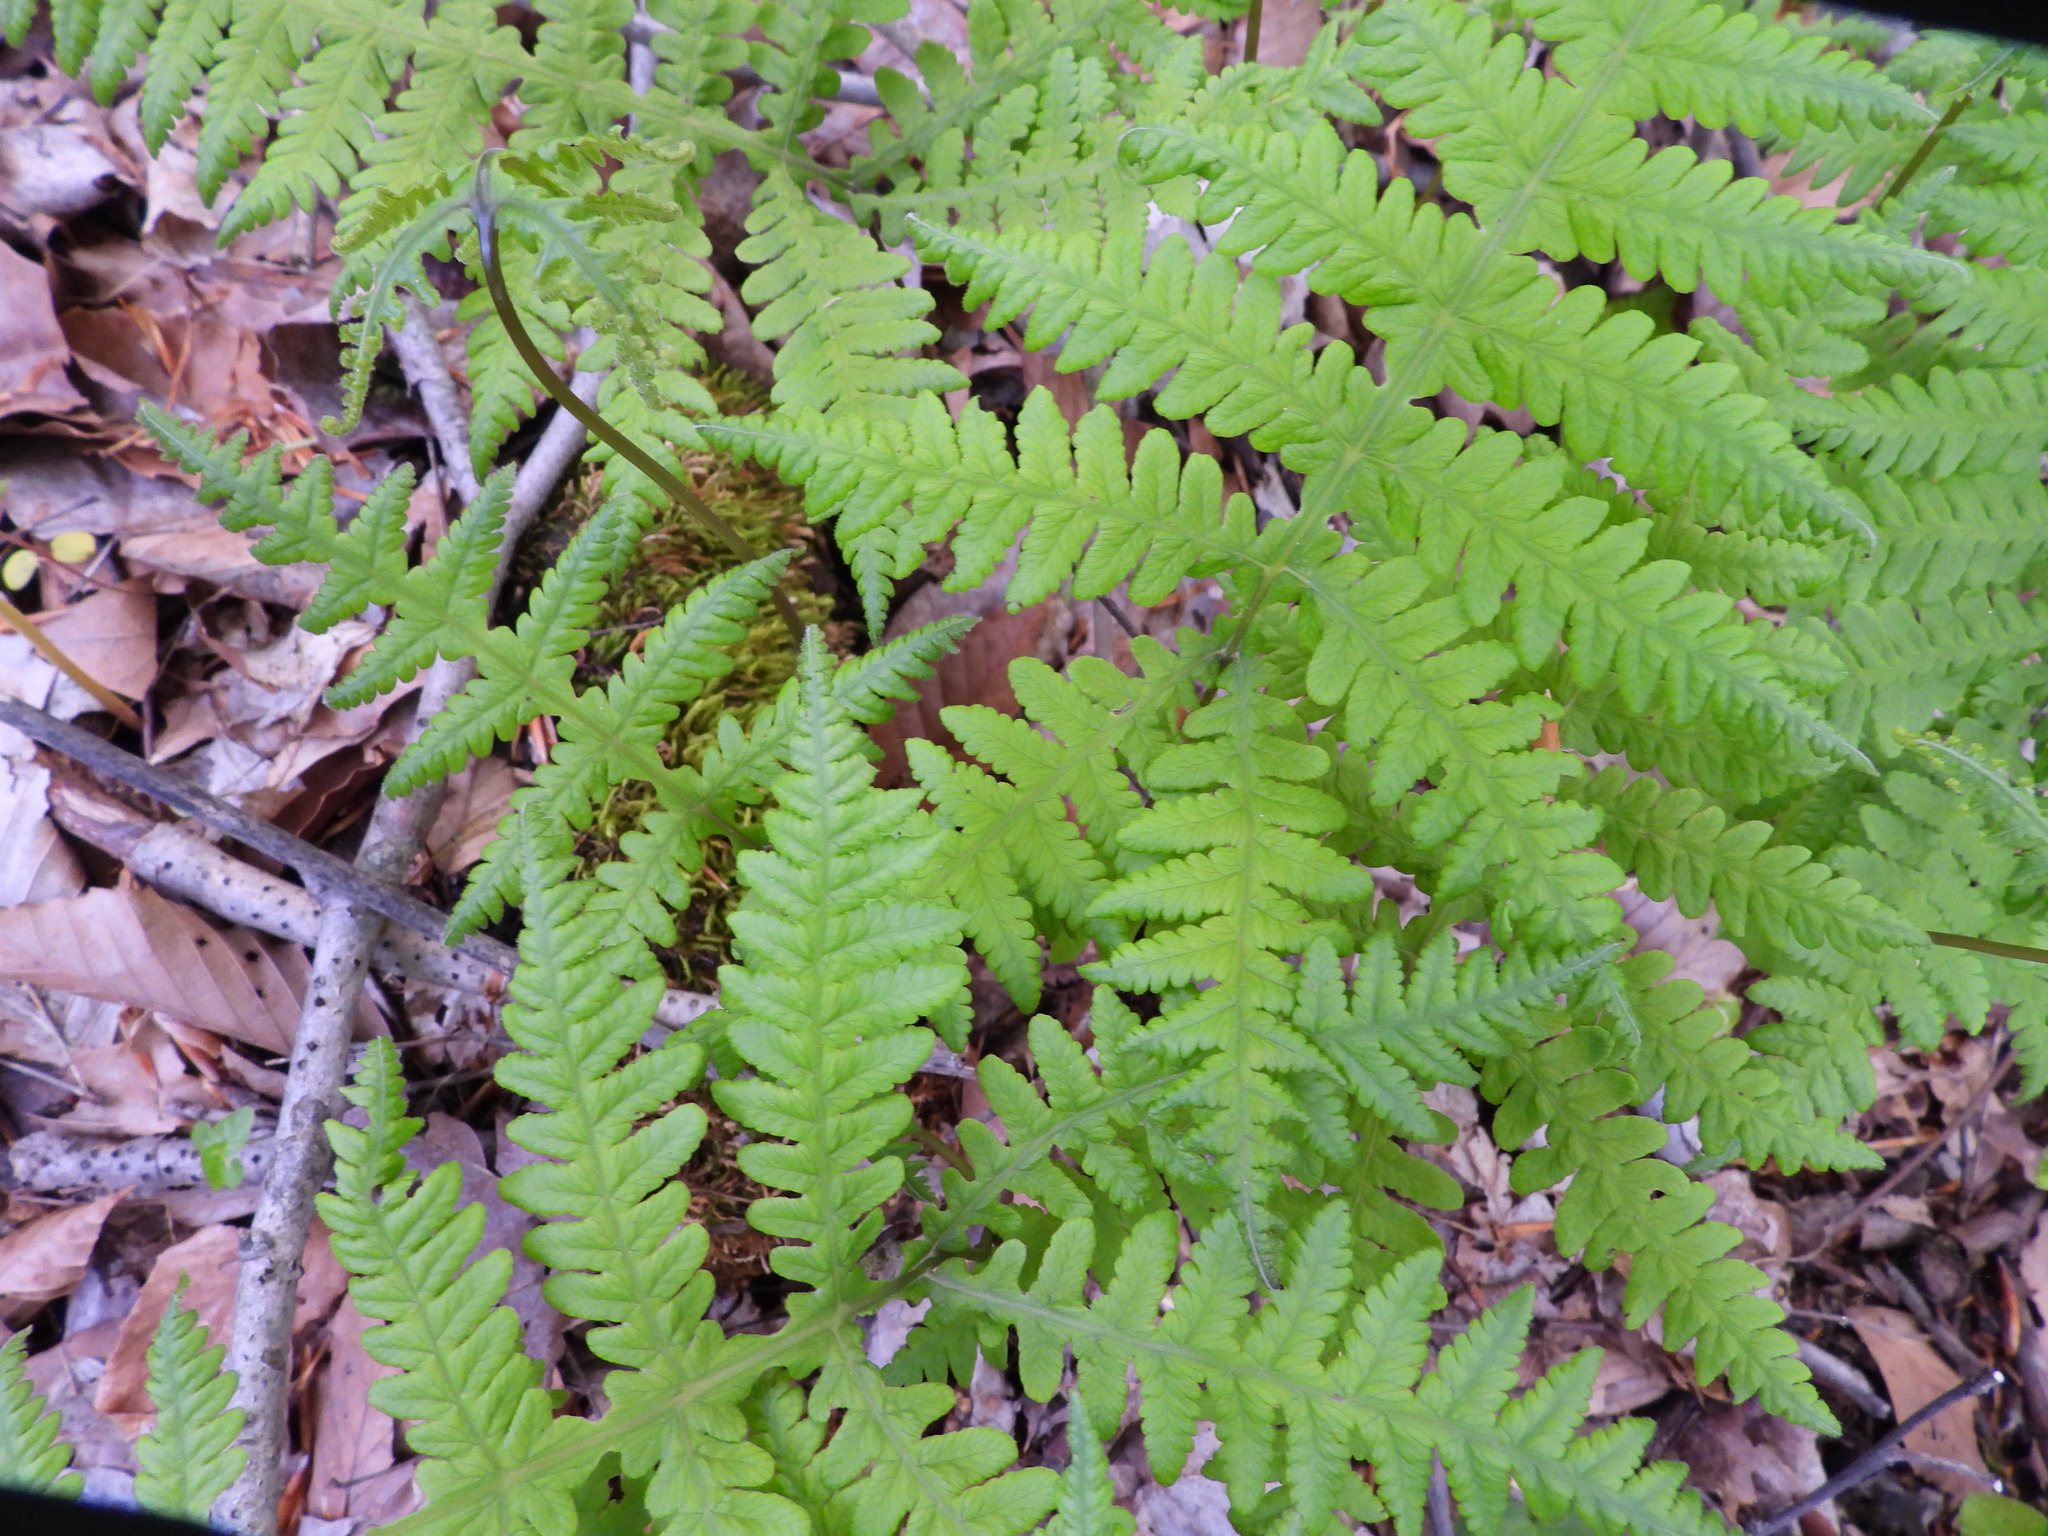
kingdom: Plantae
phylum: Tracheophyta
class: Polypodiopsida
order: Polypodiales
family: Thelypteridaceae
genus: Phegopteris
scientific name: Phegopteris hexagonoptera
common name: Broad beech fern
